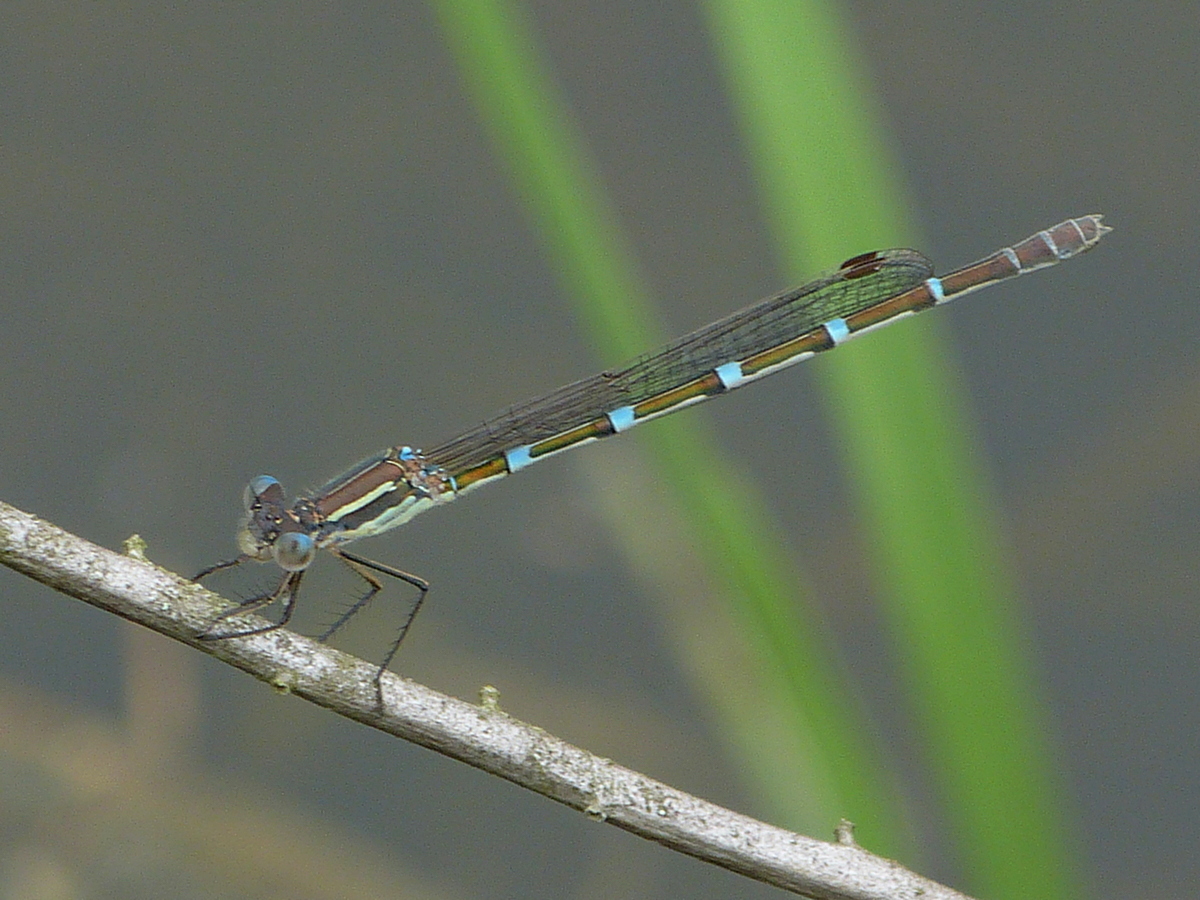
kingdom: Animalia
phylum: Arthropoda
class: Insecta
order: Odonata
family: Lestidae
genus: Austrolestes
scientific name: Austrolestes leda
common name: Wandering ringtail
